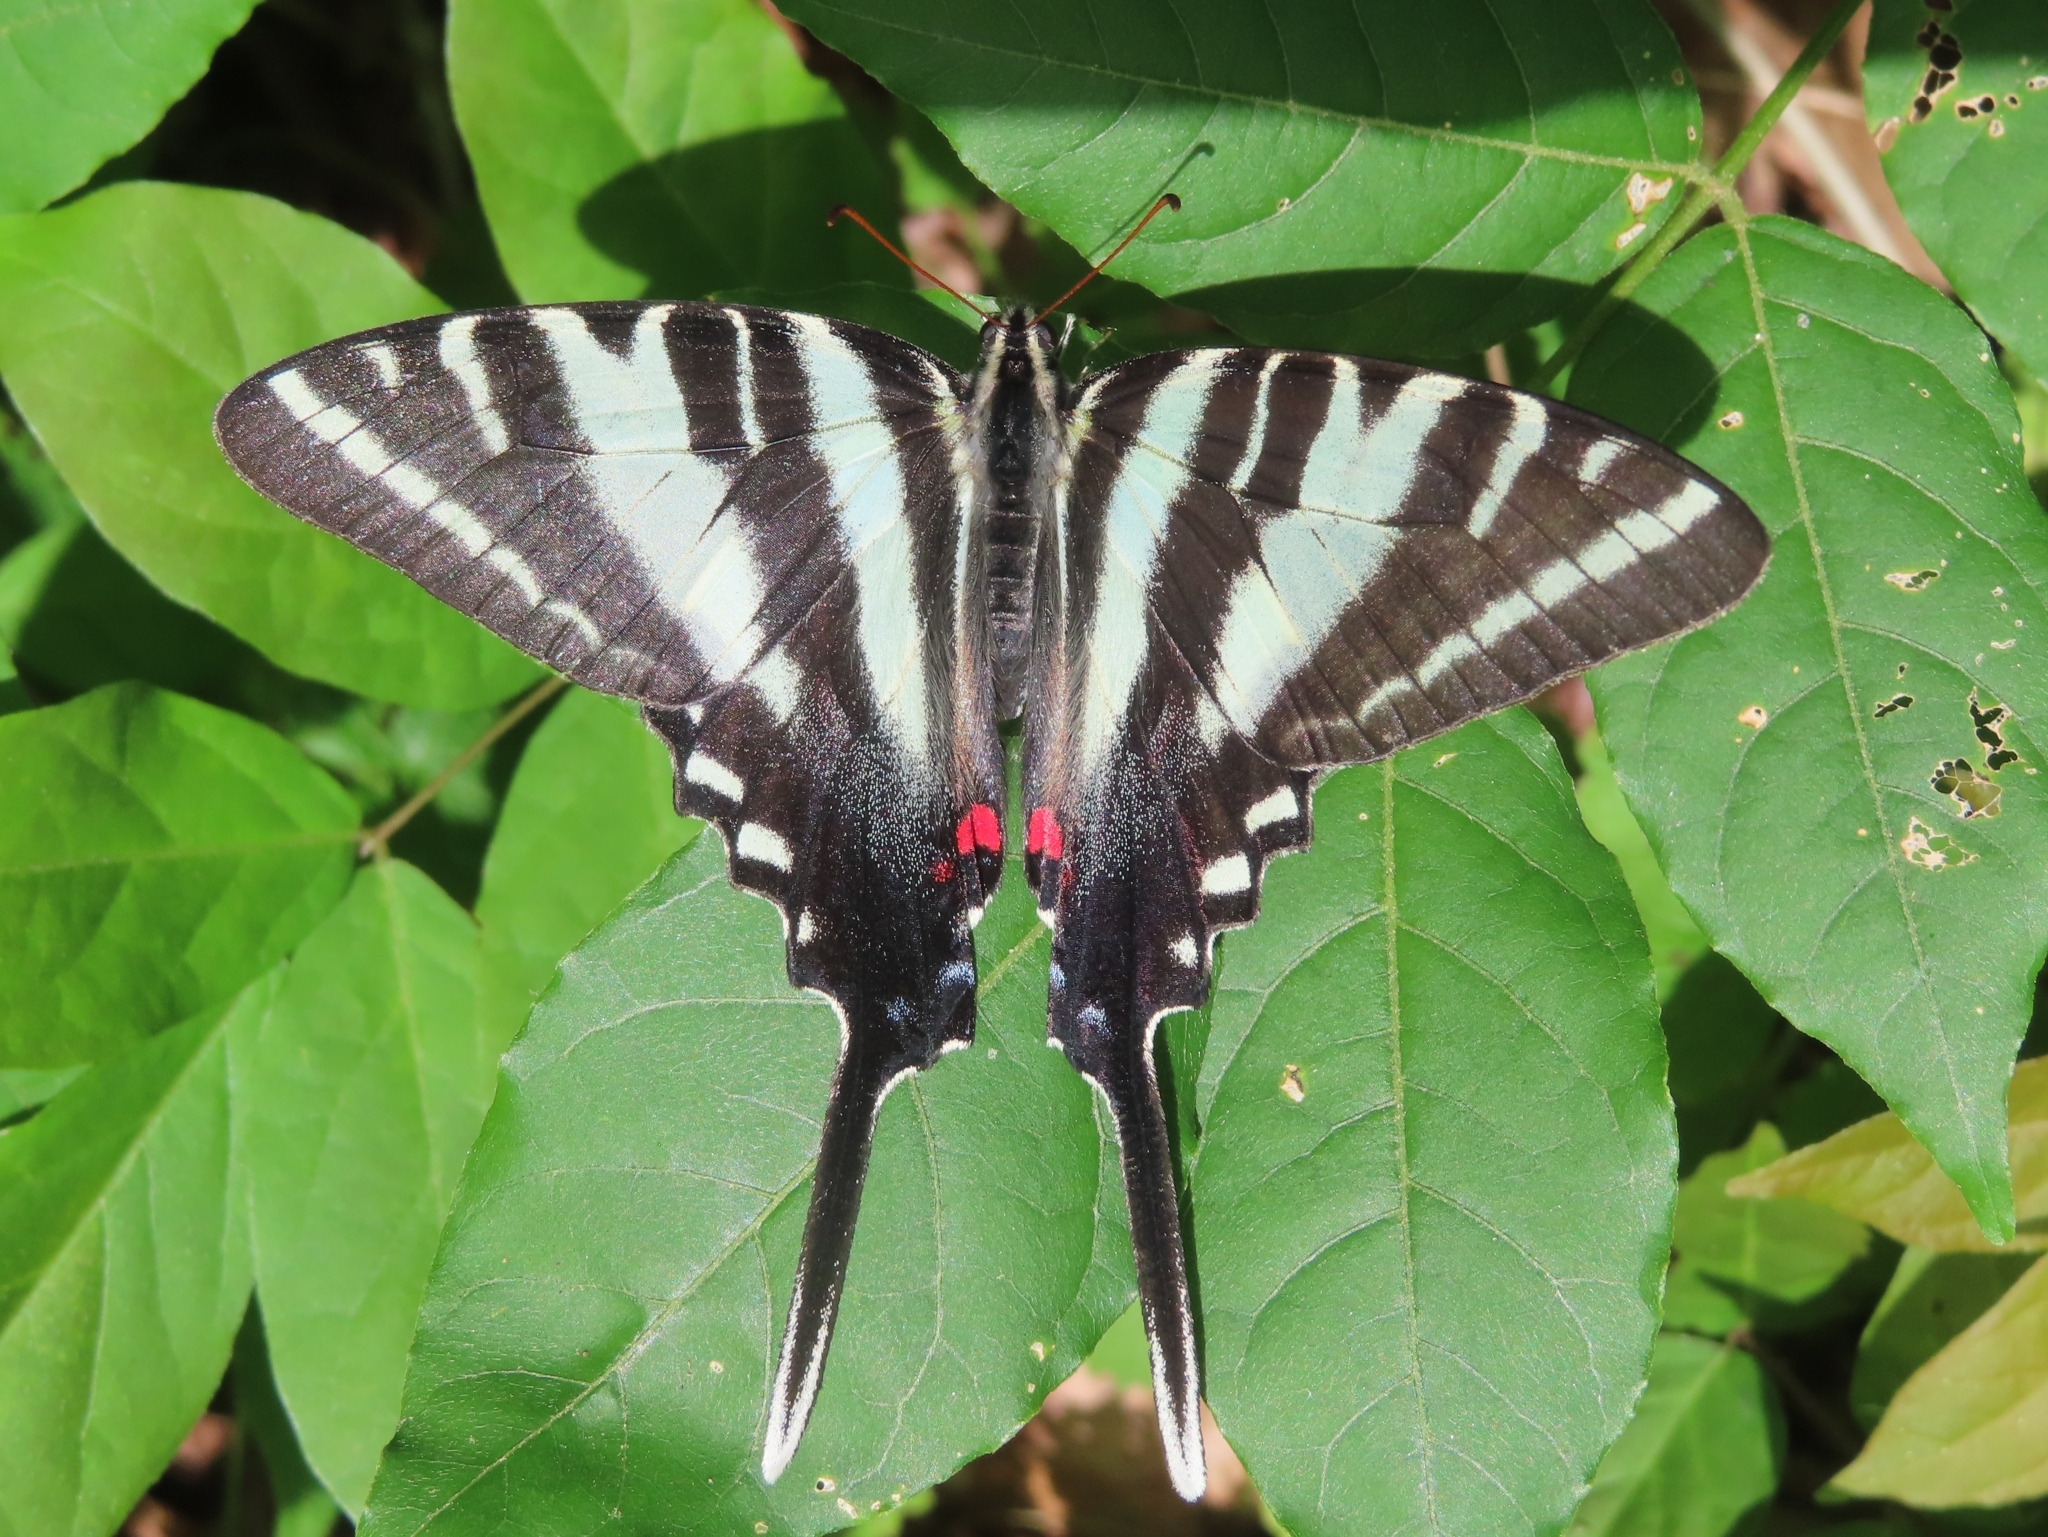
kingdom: Animalia
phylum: Arthropoda
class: Insecta
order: Lepidoptera
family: Papilionidae
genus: Protographium
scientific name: Protographium marcellus
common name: Zebra swallowtail
